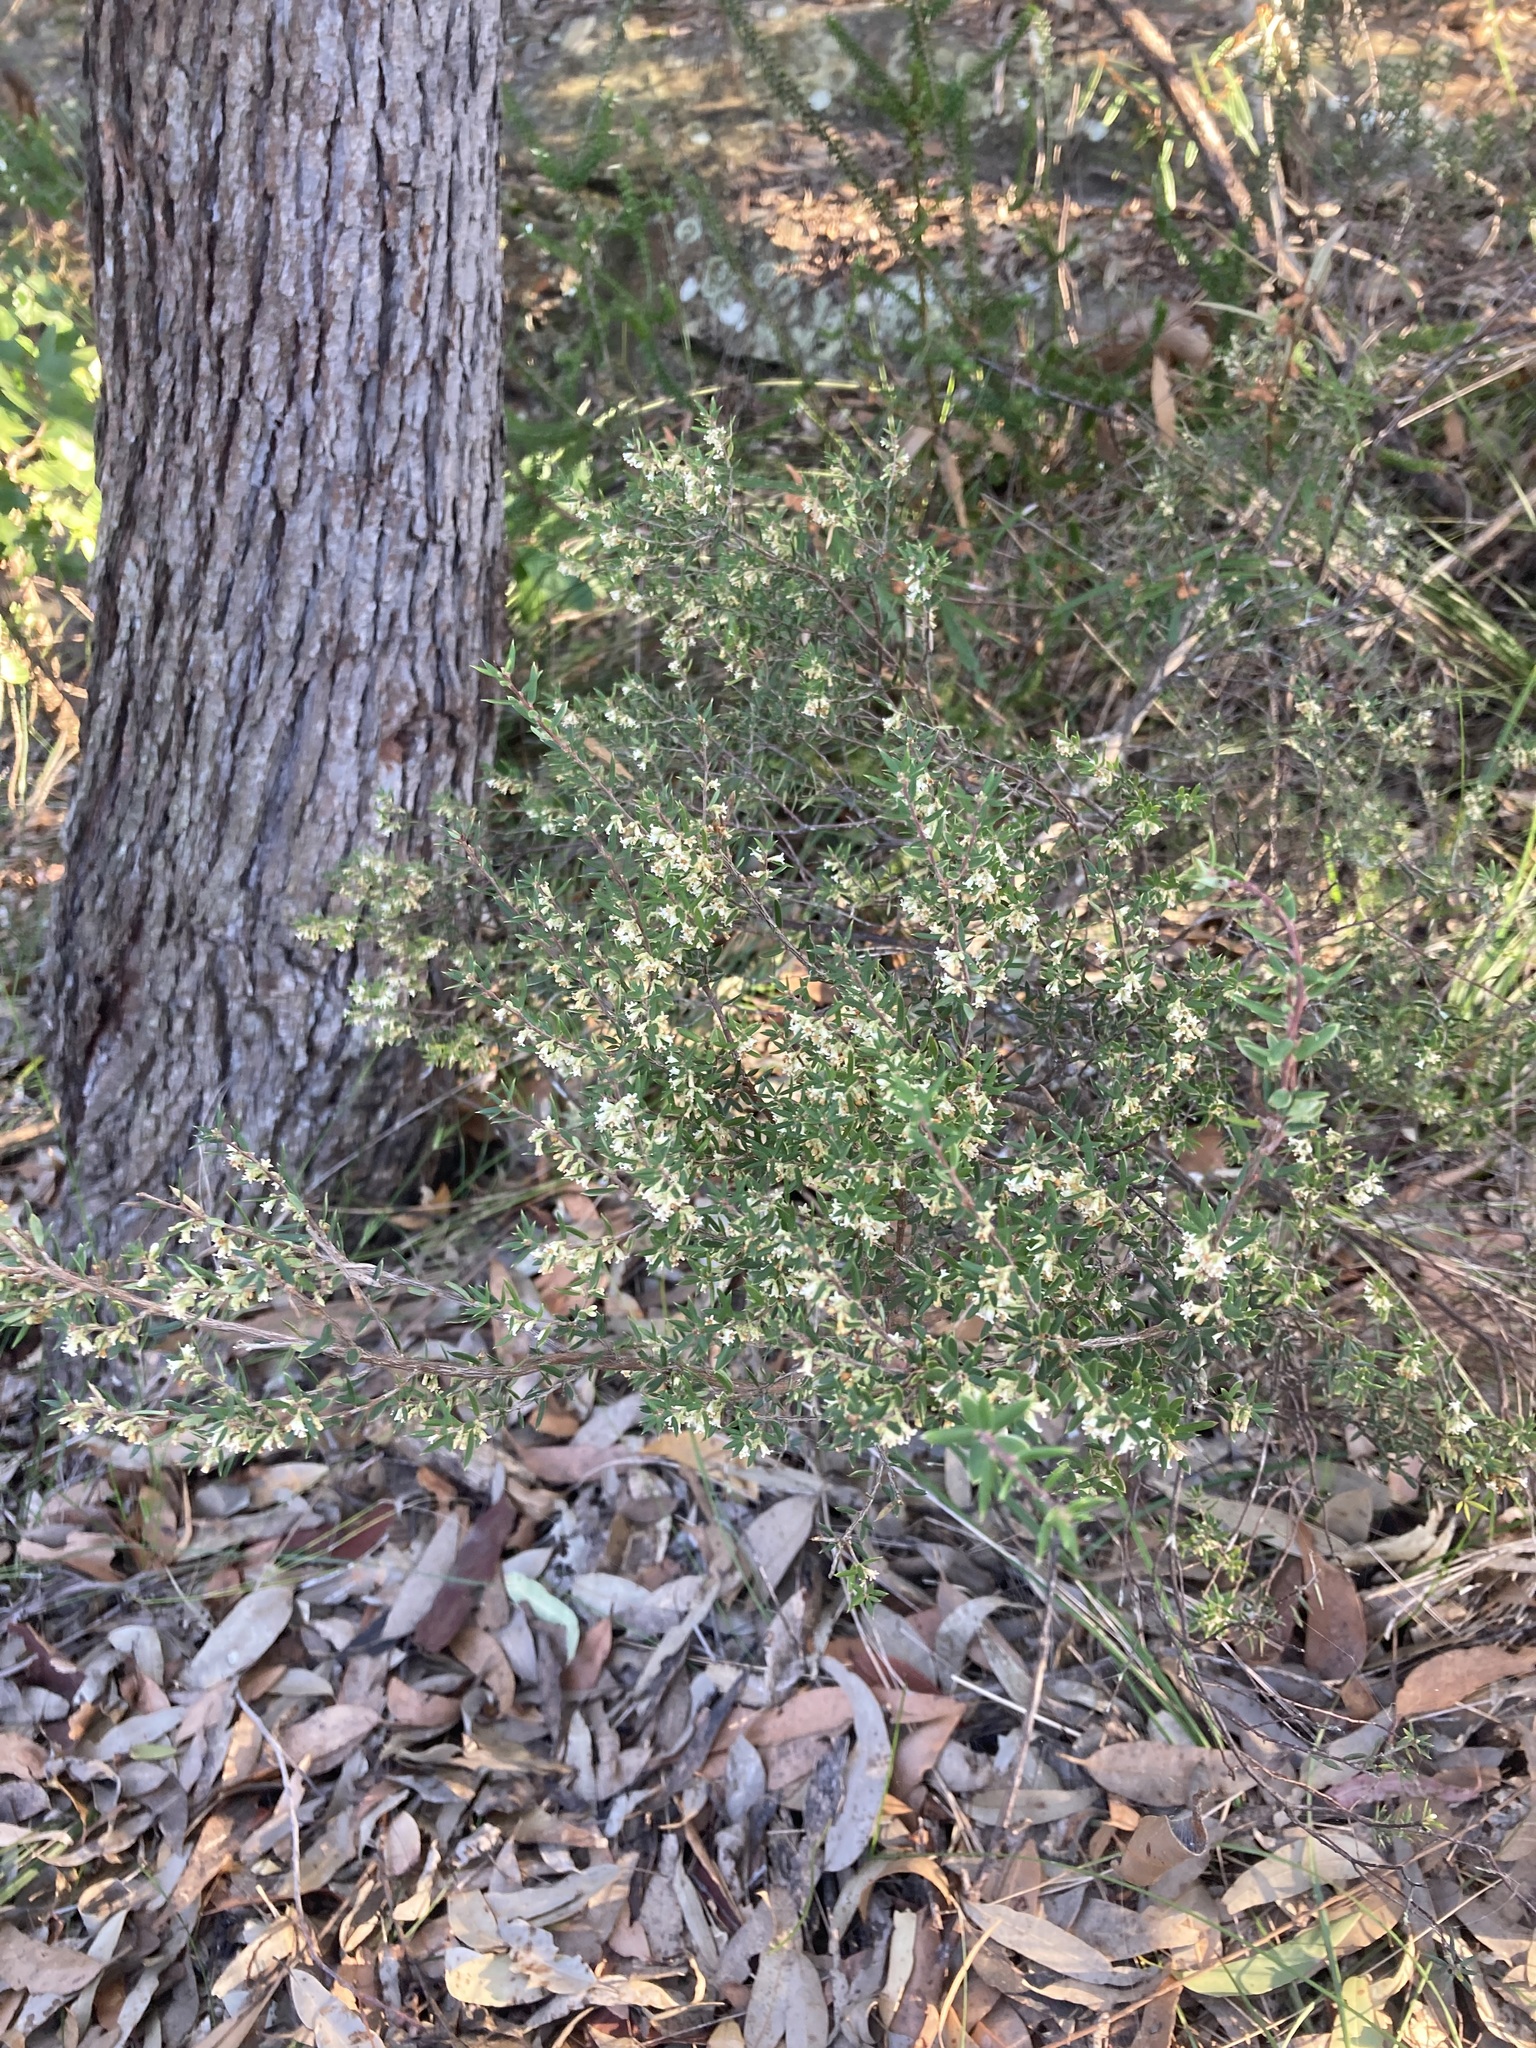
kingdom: Plantae
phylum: Tracheophyta
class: Magnoliopsida
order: Ericales
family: Ericaceae
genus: Monotoca
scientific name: Monotoca scoparia
